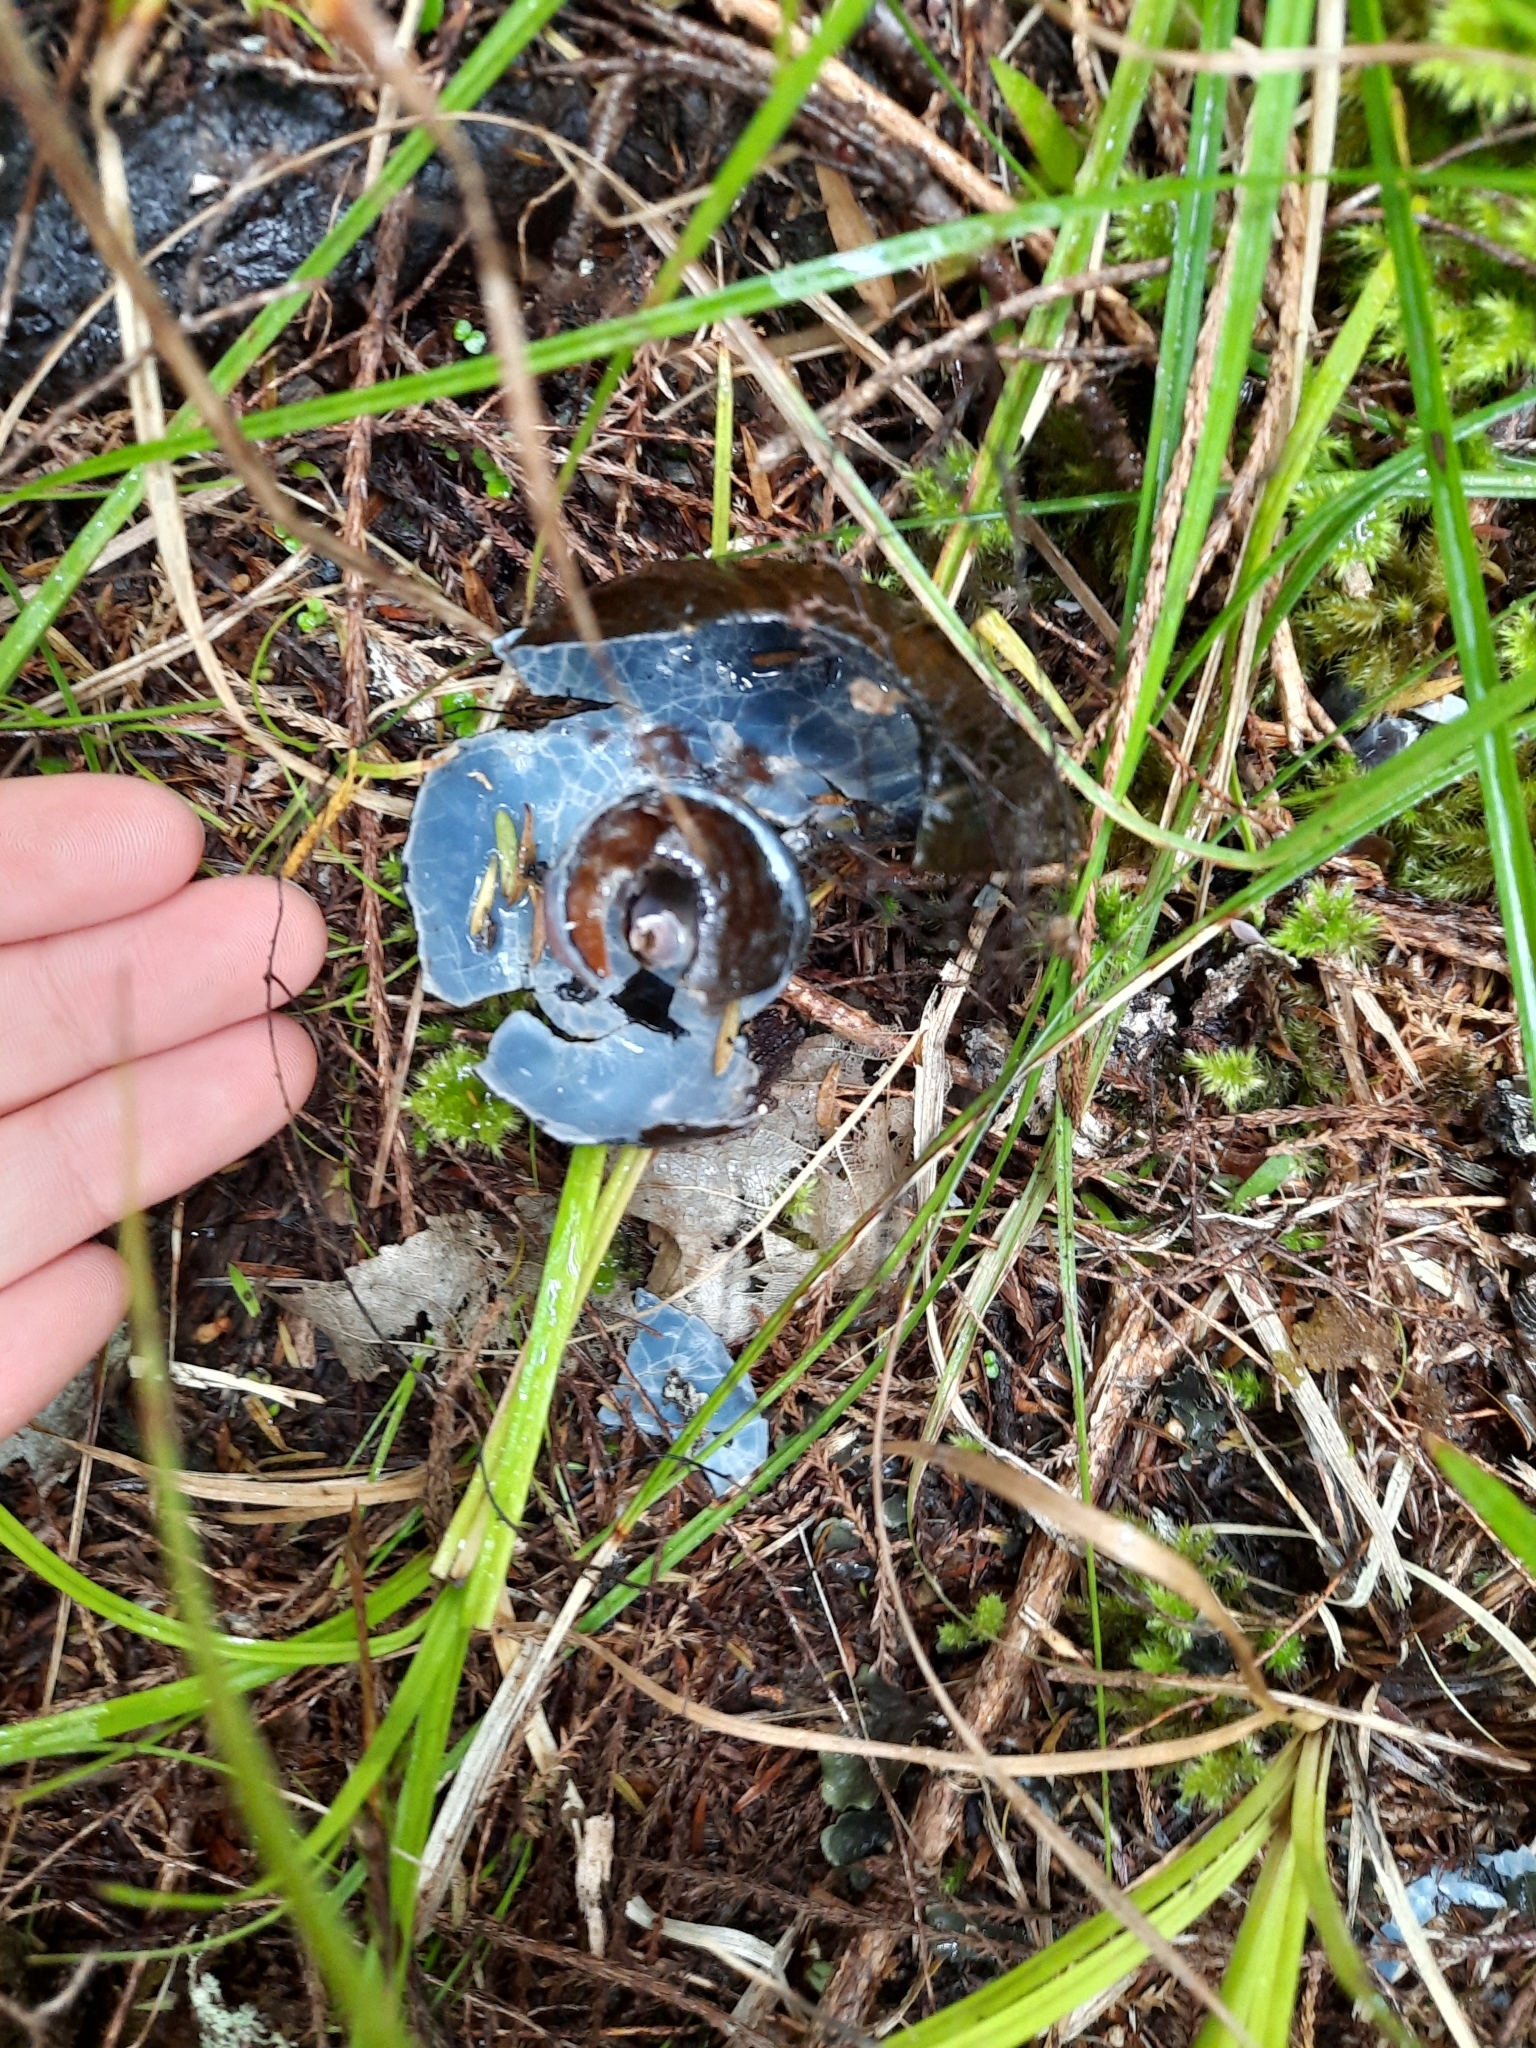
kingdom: Animalia
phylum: Mollusca
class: Gastropoda
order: Stylommatophora
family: Rhytididae
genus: Paryphanta
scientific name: Paryphanta busbyi
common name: Kauri snail
